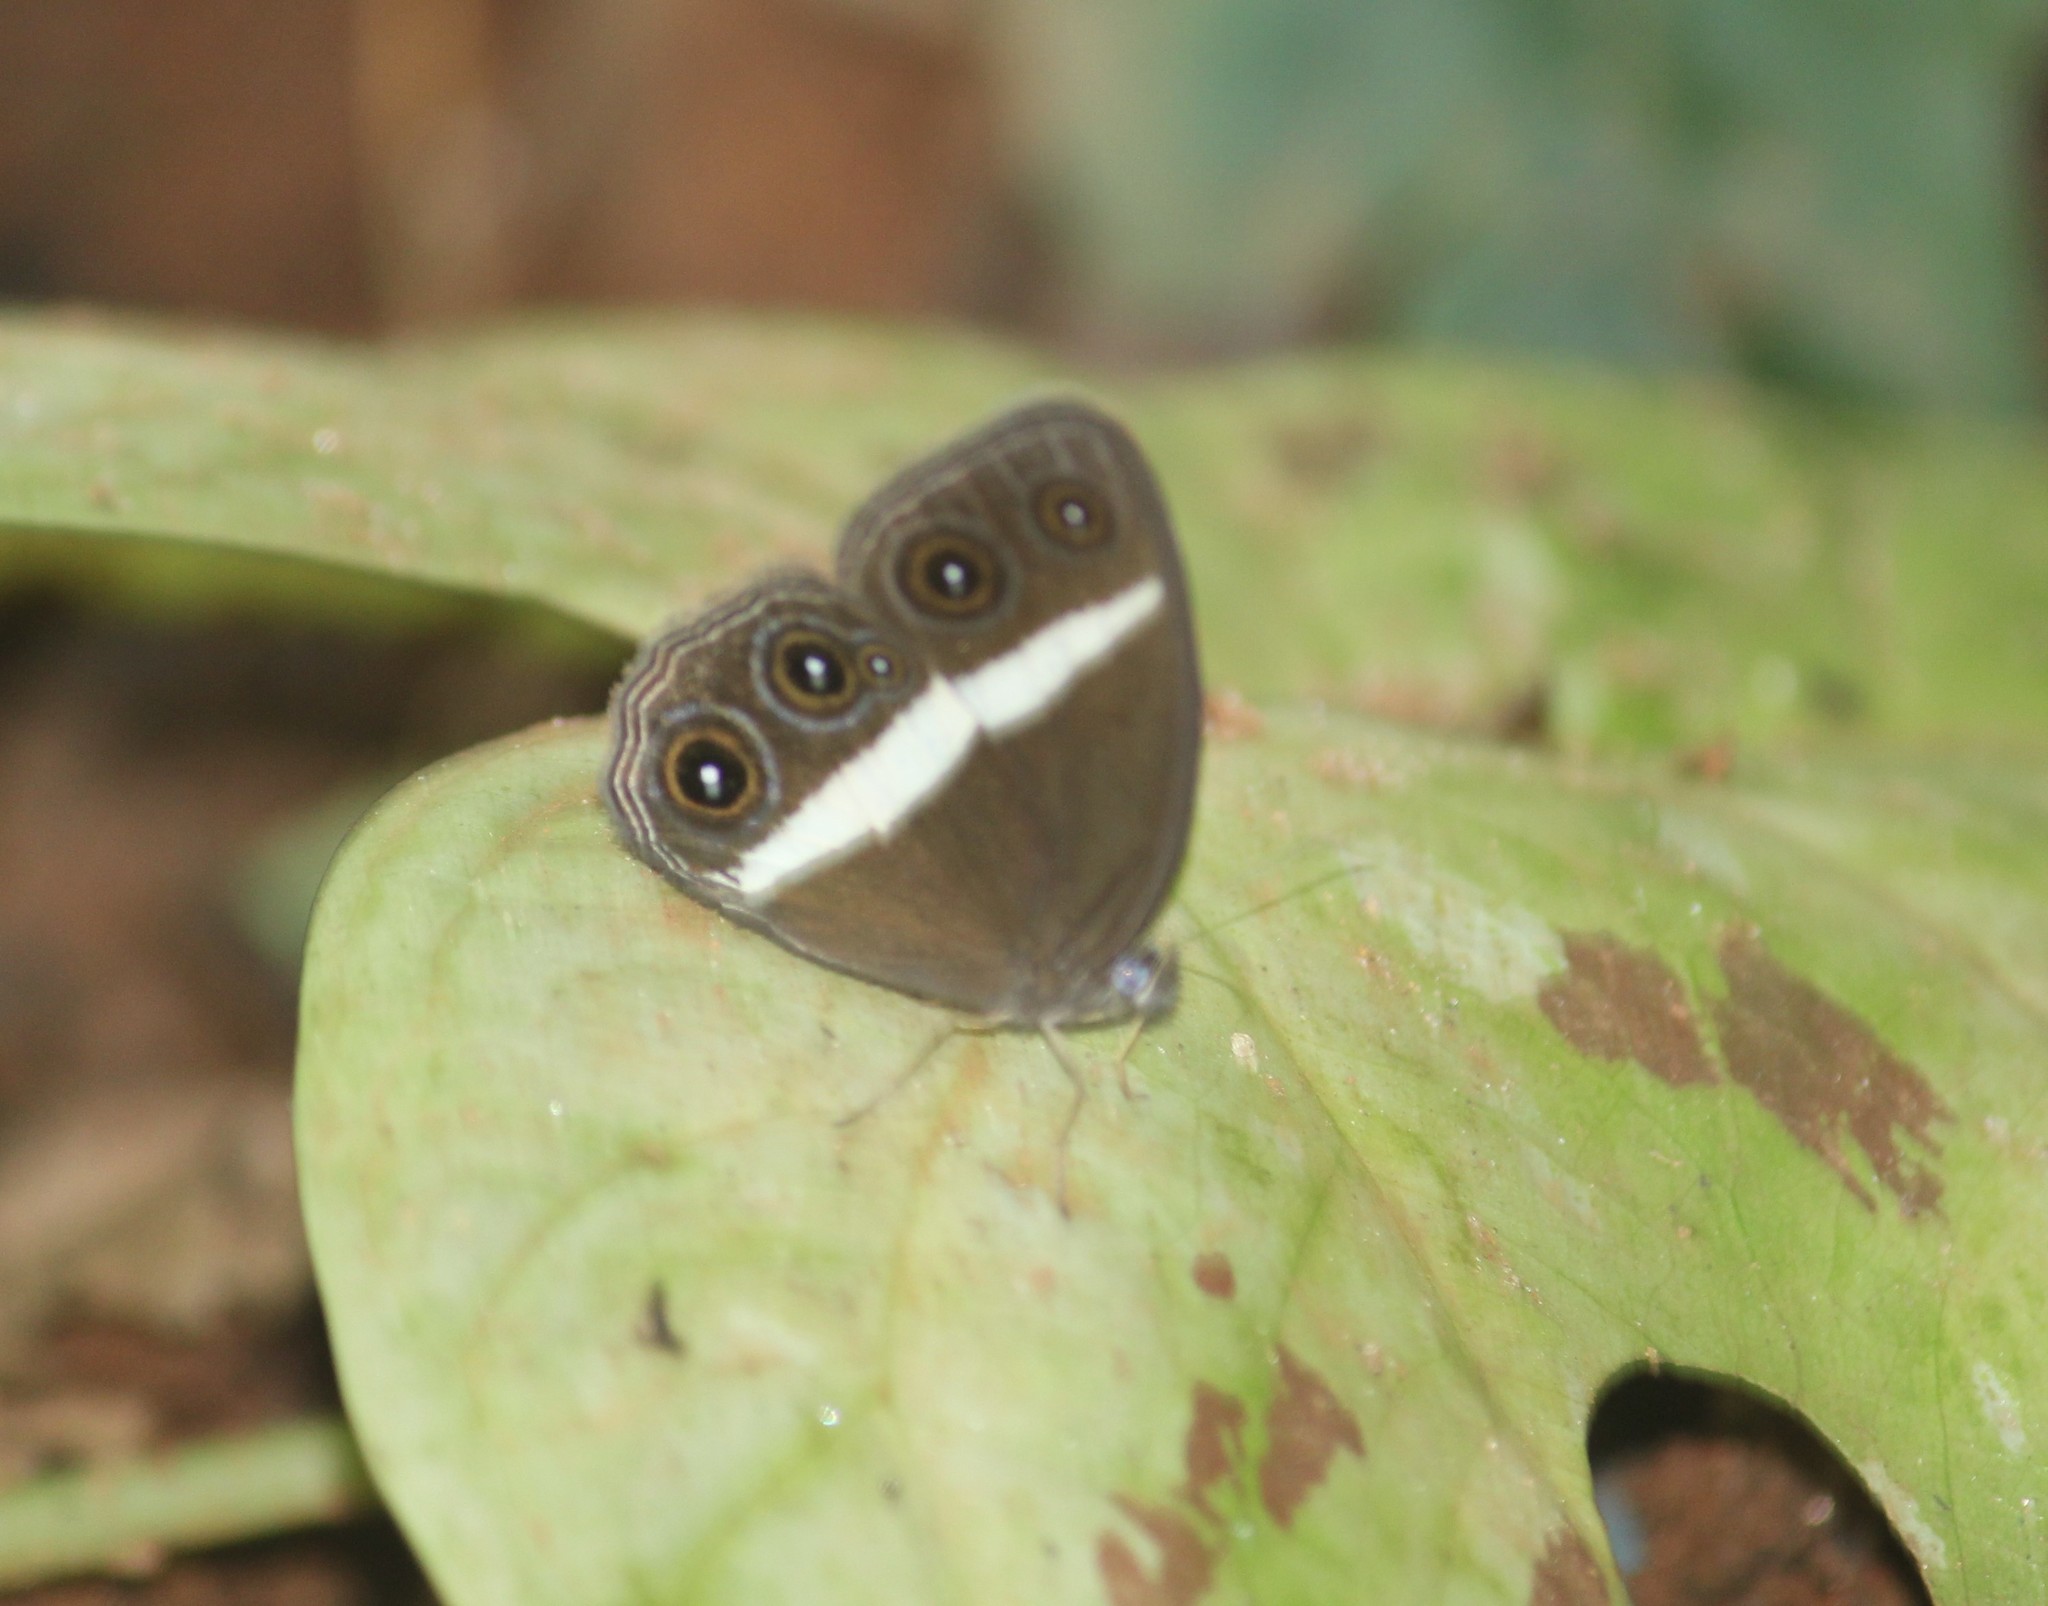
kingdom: Animalia
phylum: Arthropoda
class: Insecta
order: Lepidoptera
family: Nymphalidae
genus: Orsotriaena
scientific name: Orsotriaena medus
